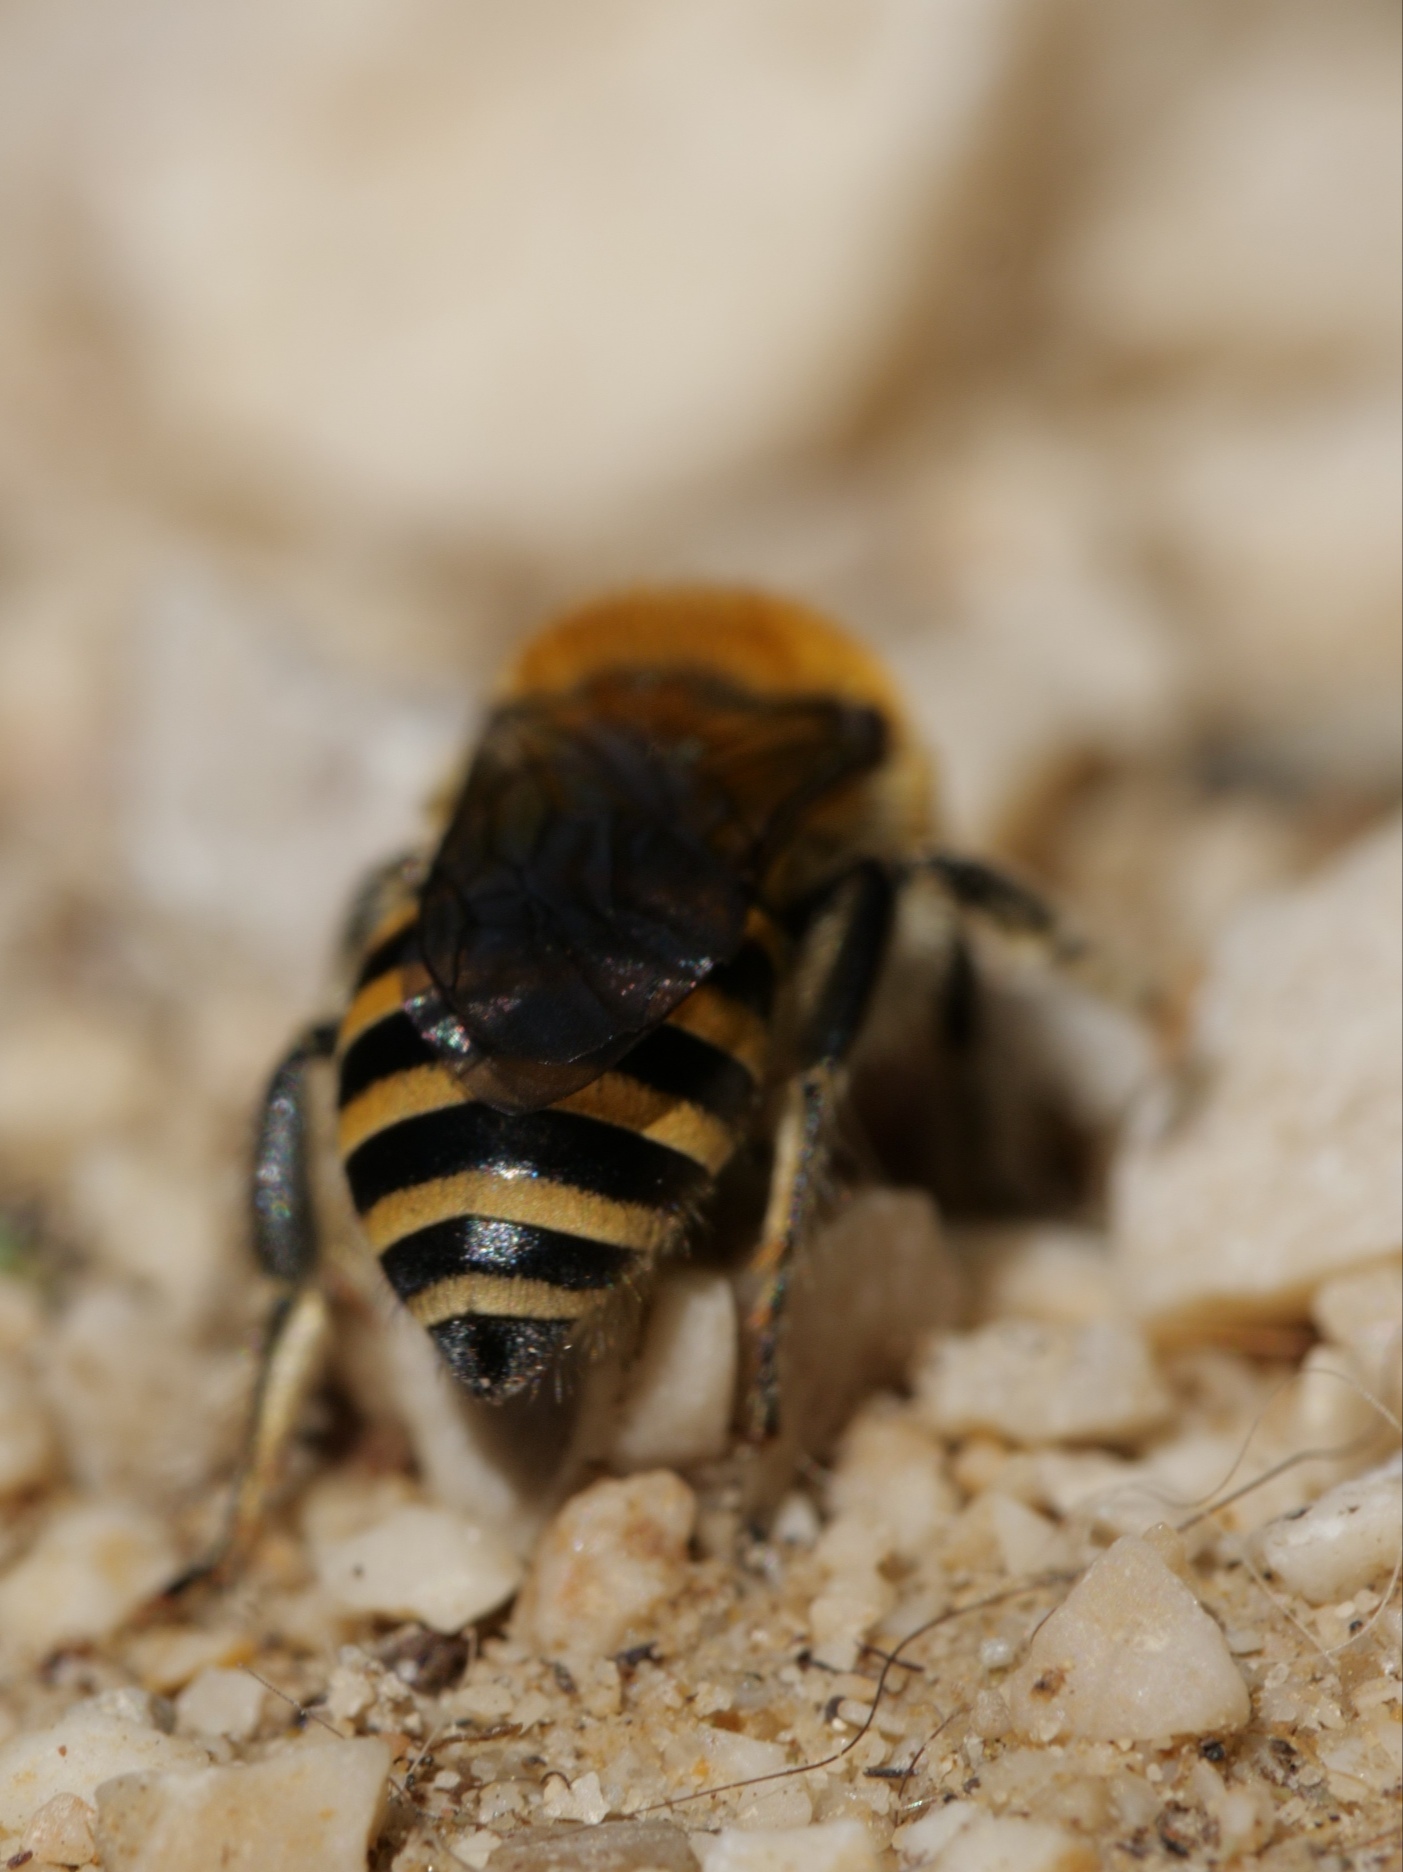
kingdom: Animalia
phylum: Arthropoda
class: Insecta
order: Hymenoptera
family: Colletidae
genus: Colletes
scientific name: Colletes hederae
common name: Ivy bee
